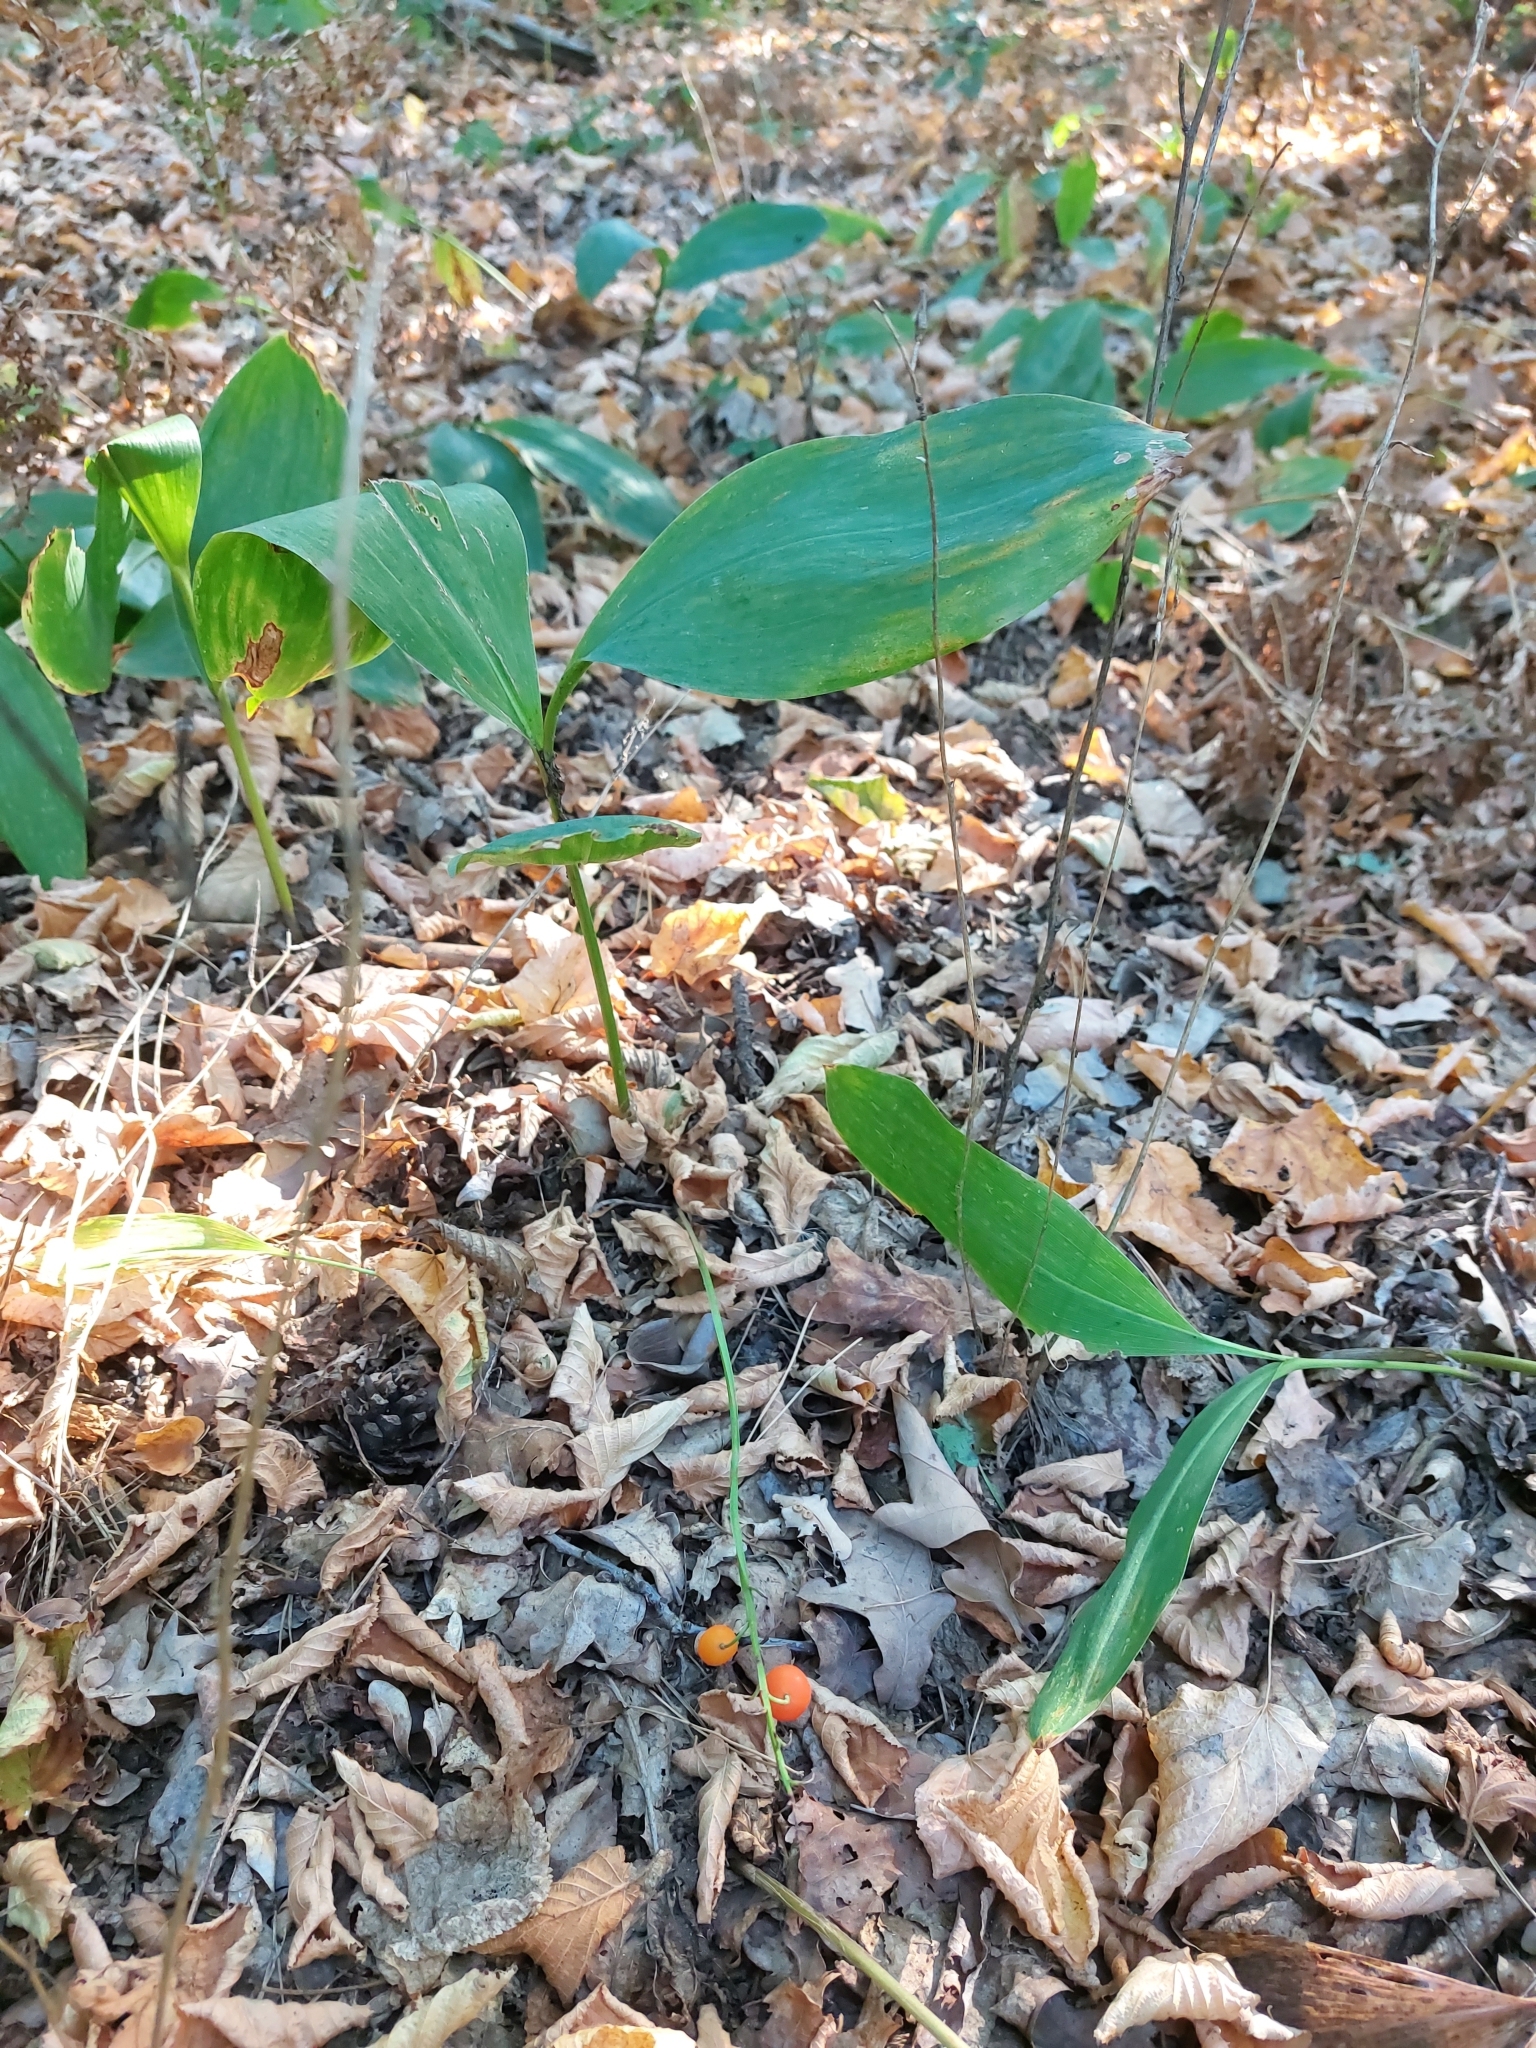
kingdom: Plantae
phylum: Tracheophyta
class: Liliopsida
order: Asparagales
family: Asparagaceae
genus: Convallaria
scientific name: Convallaria majalis
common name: Lily-of-the-valley
